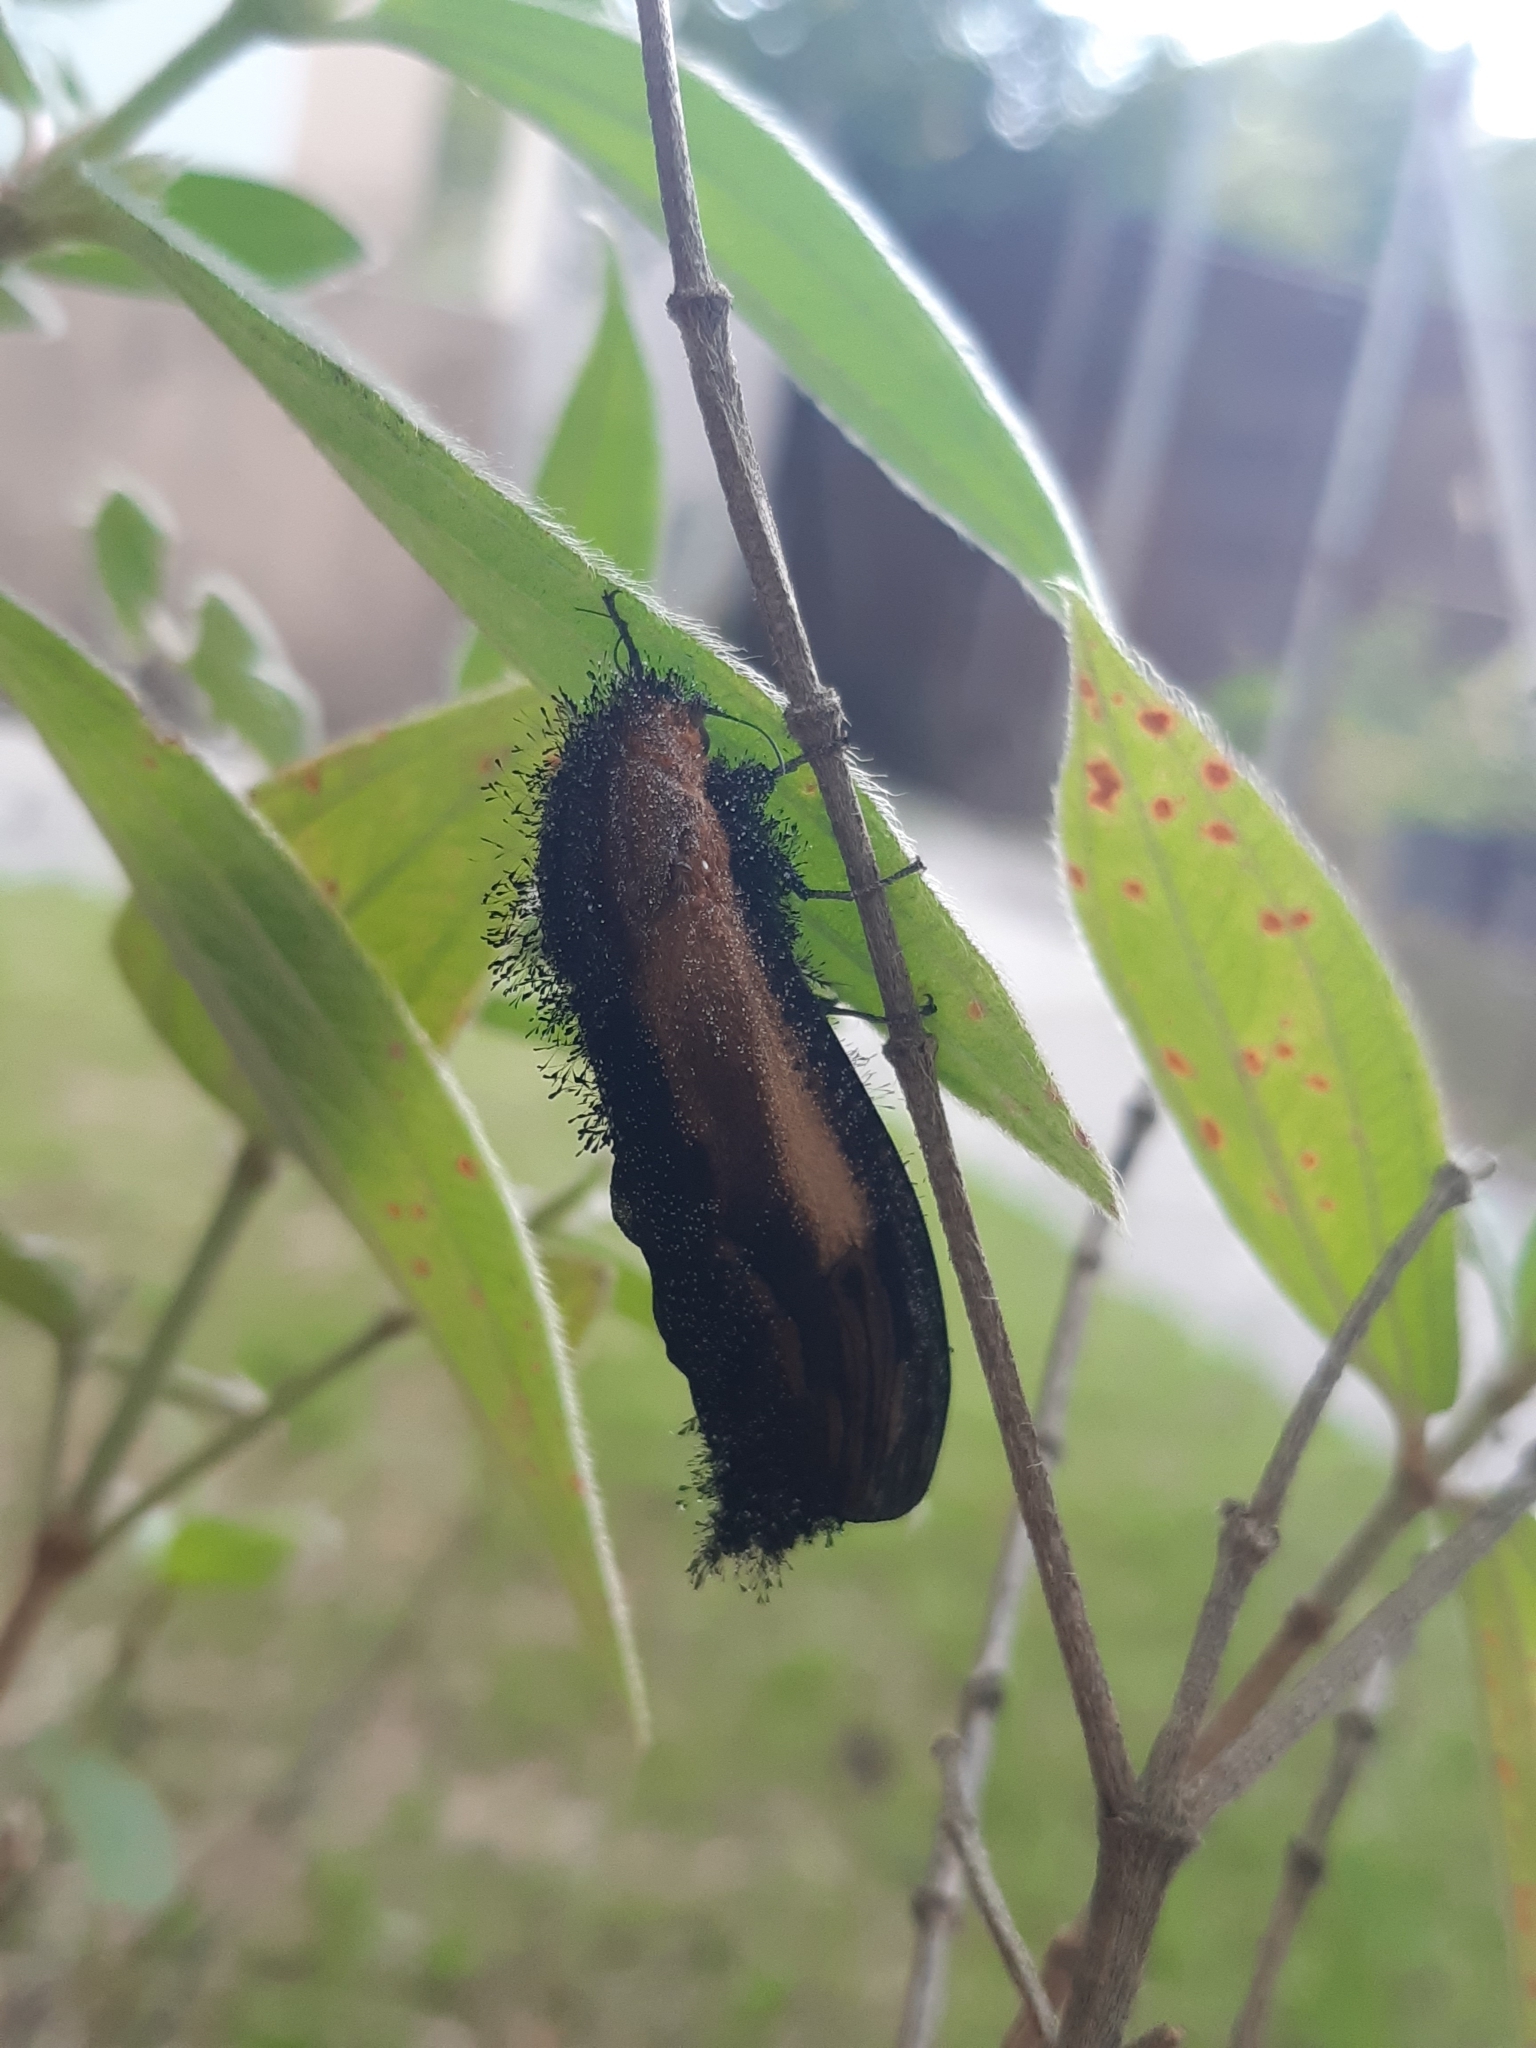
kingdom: Animalia
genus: Ceuroma
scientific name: Ceuroma
